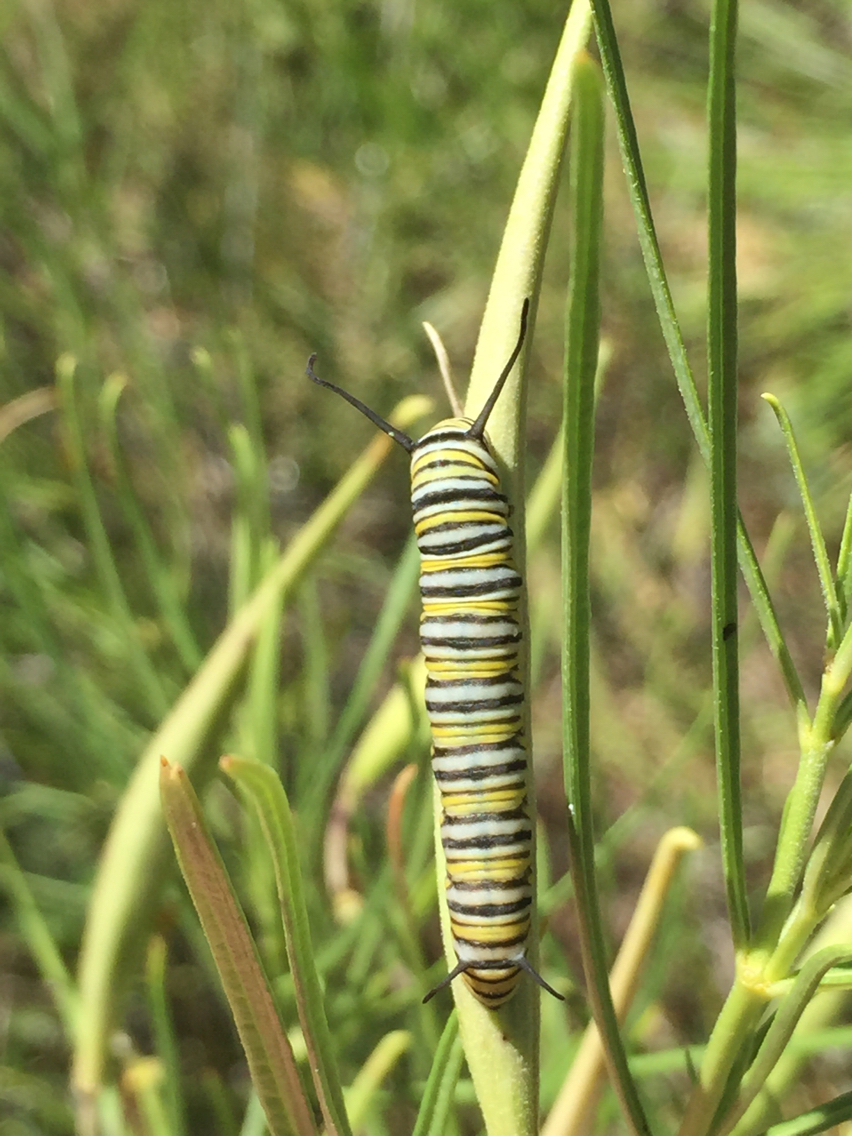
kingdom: Animalia
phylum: Arthropoda
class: Insecta
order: Lepidoptera
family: Nymphalidae
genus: Danaus
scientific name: Danaus plexippus
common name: Monarch
